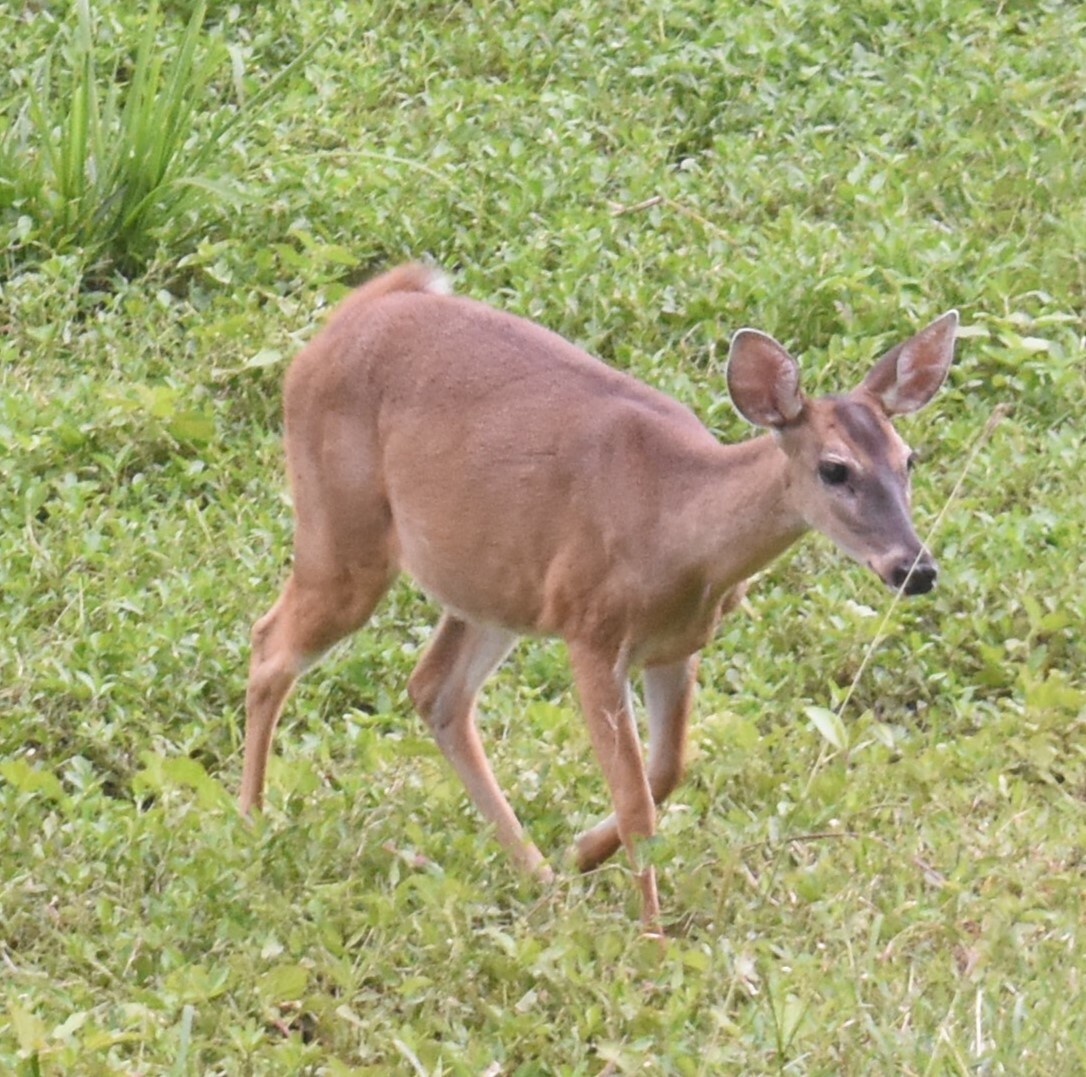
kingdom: Animalia
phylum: Chordata
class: Mammalia
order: Artiodactyla
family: Cervidae
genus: Odocoileus
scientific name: Odocoileus virginianus
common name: White-tailed deer
